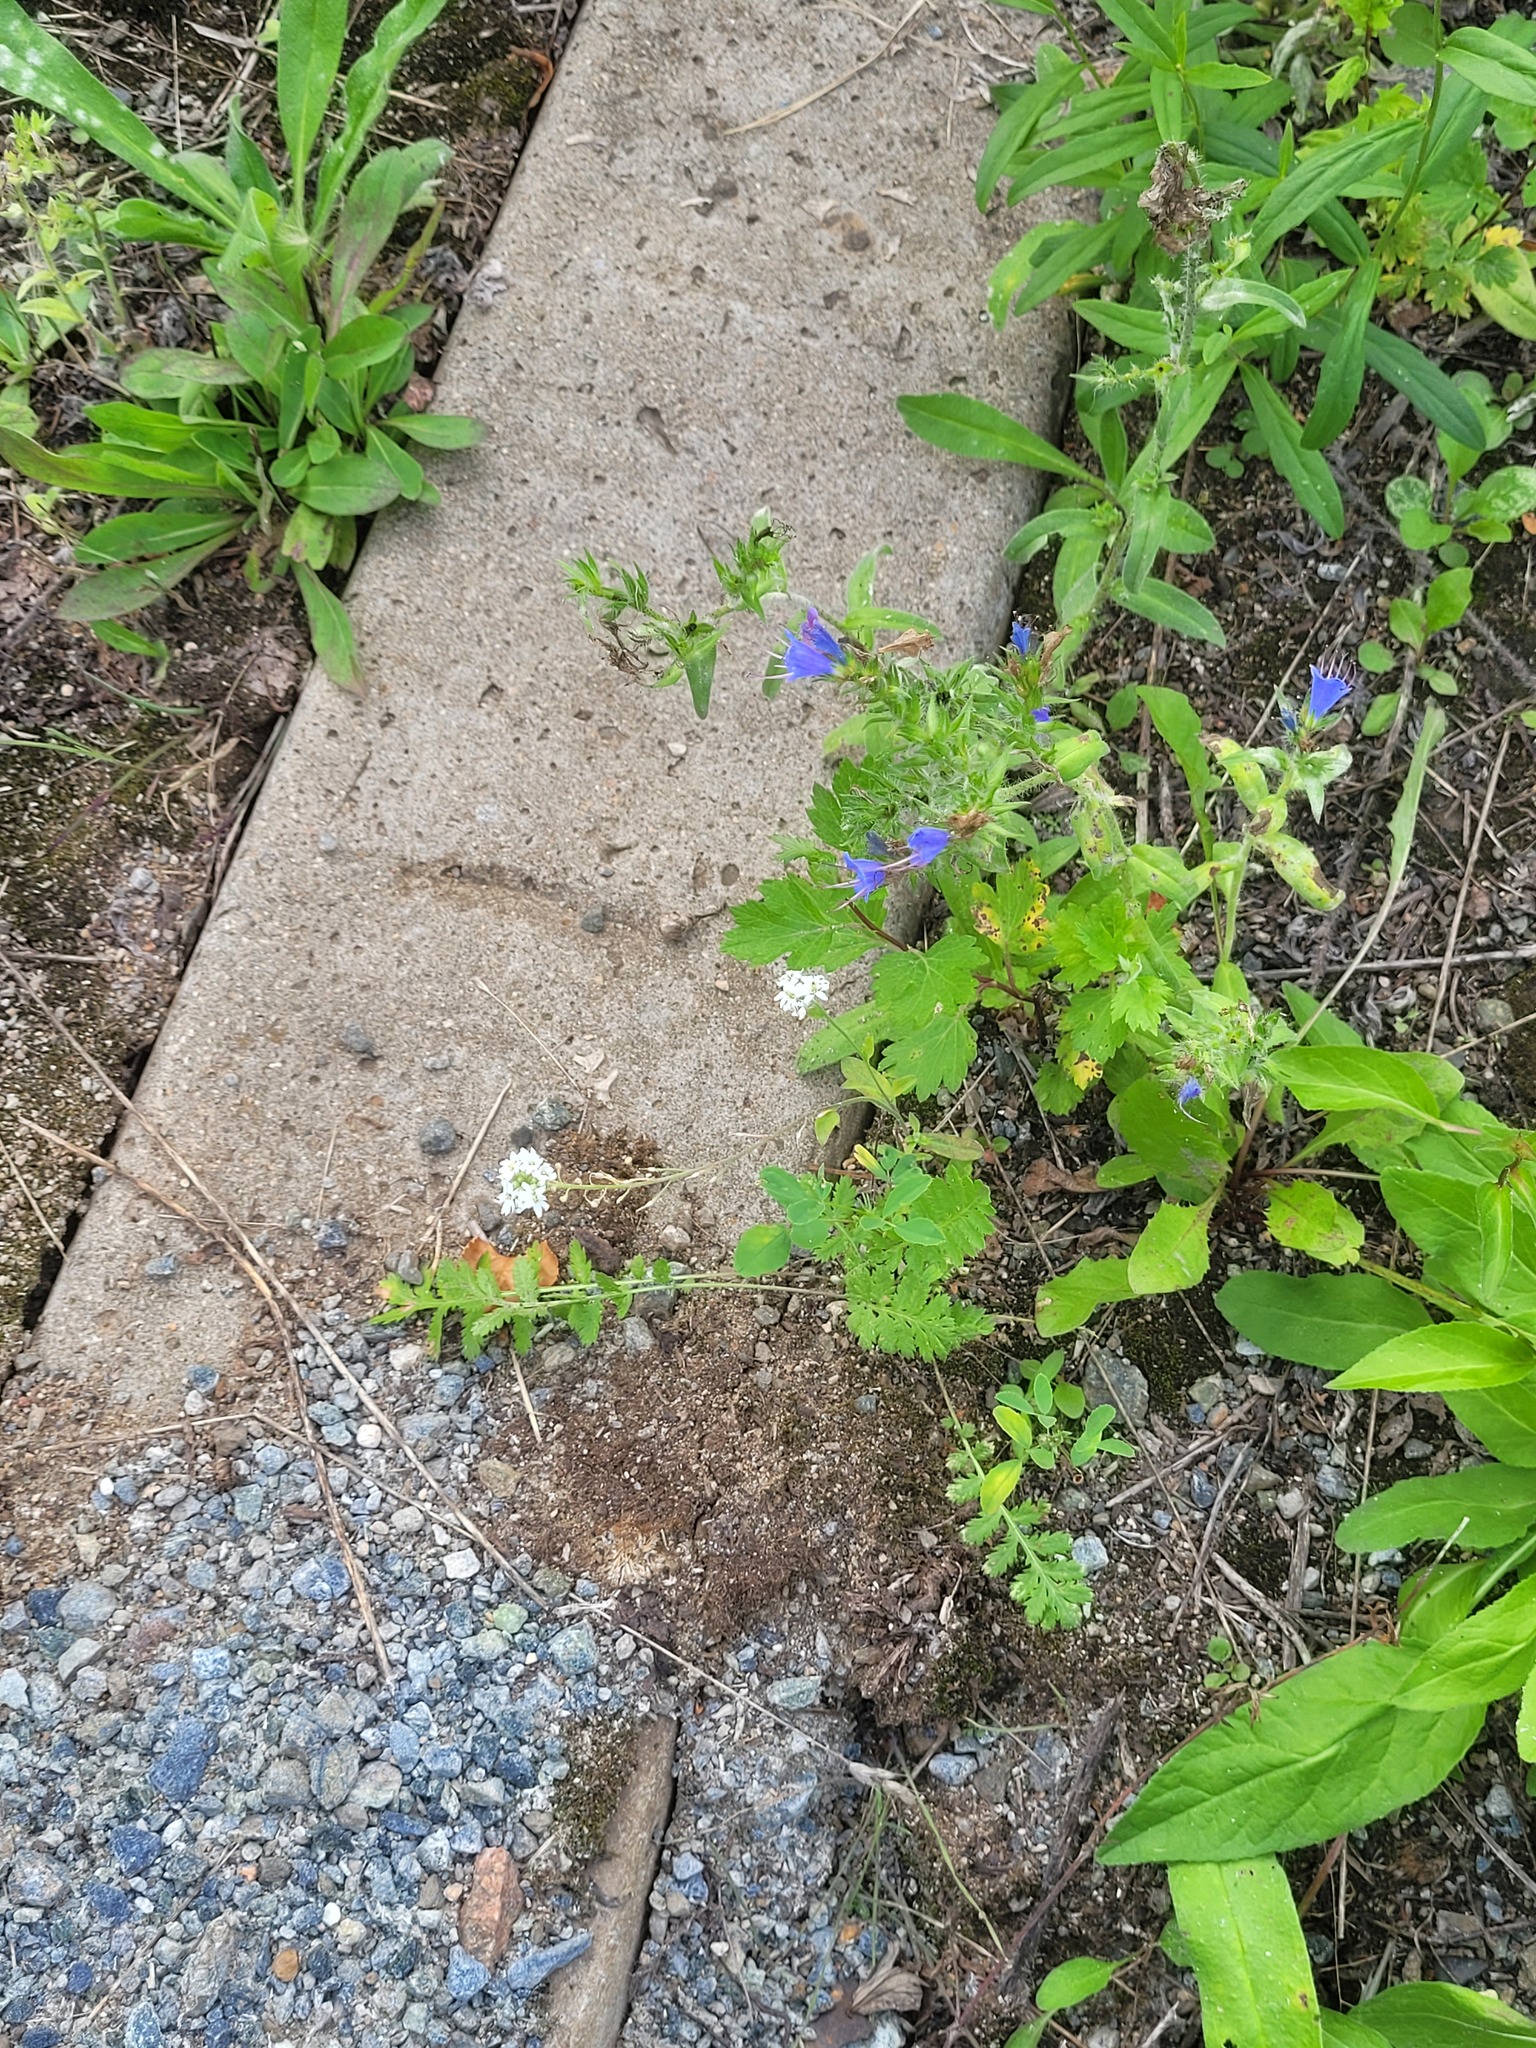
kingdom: Plantae
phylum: Tracheophyta
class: Magnoliopsida
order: Brassicales
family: Brassicaceae
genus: Berteroa
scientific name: Berteroa incana
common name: Hoary alison
